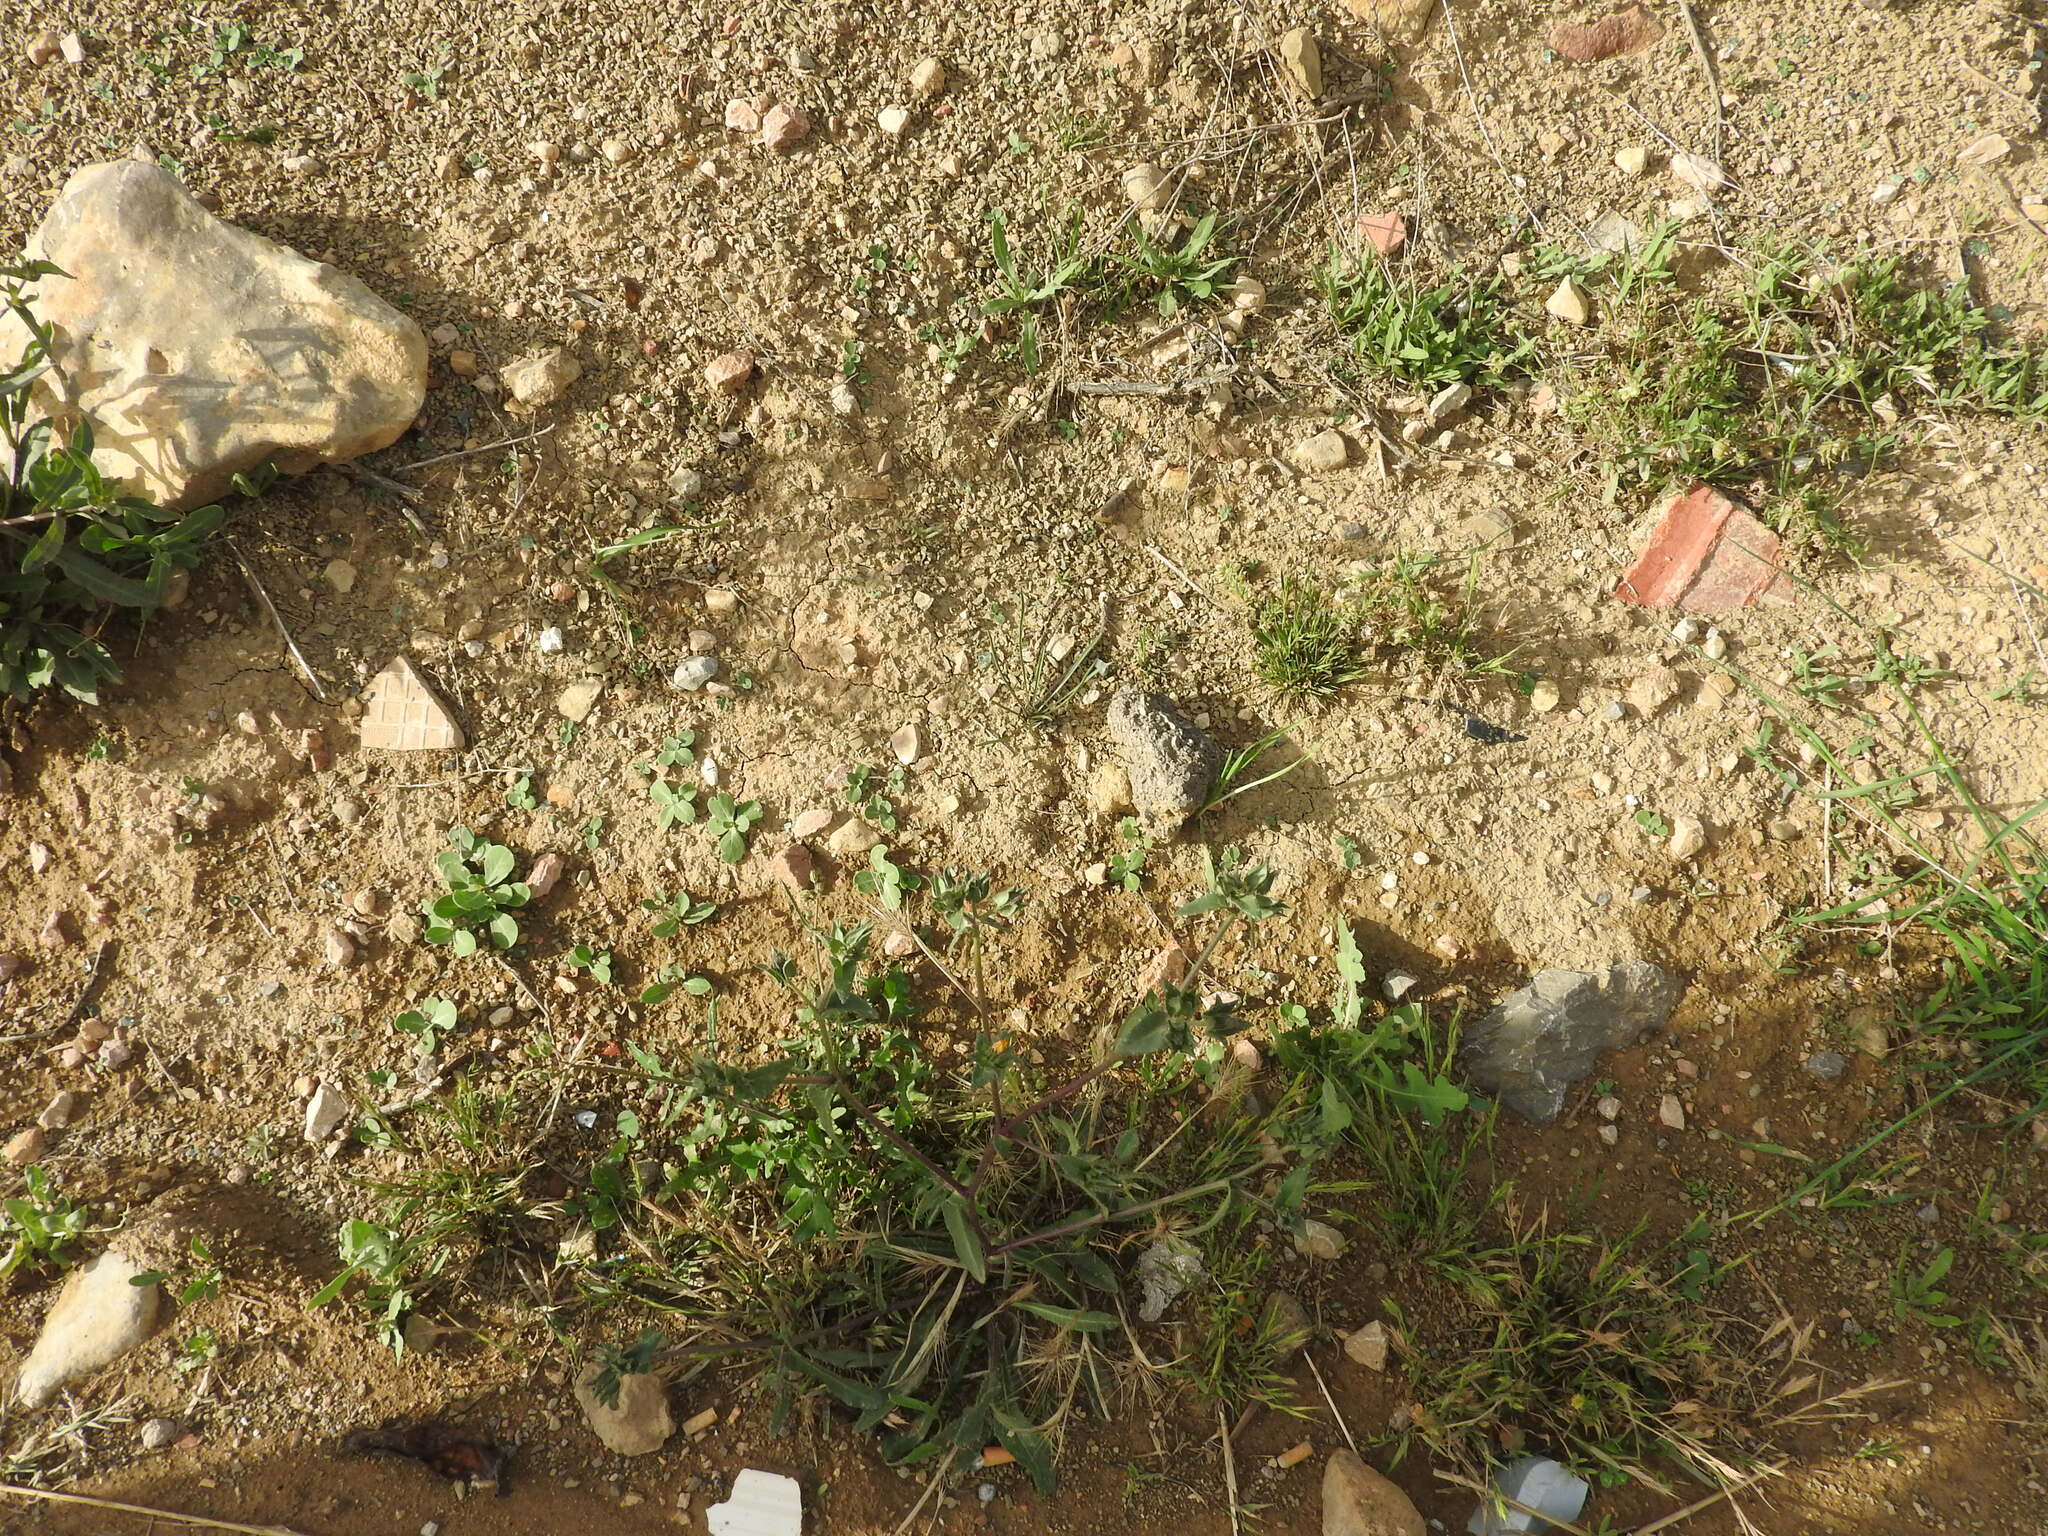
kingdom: Plantae
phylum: Tracheophyta
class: Magnoliopsida
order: Asterales
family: Asteraceae
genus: Helminthotheca
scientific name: Helminthotheca echioides
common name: Ox-tongue
